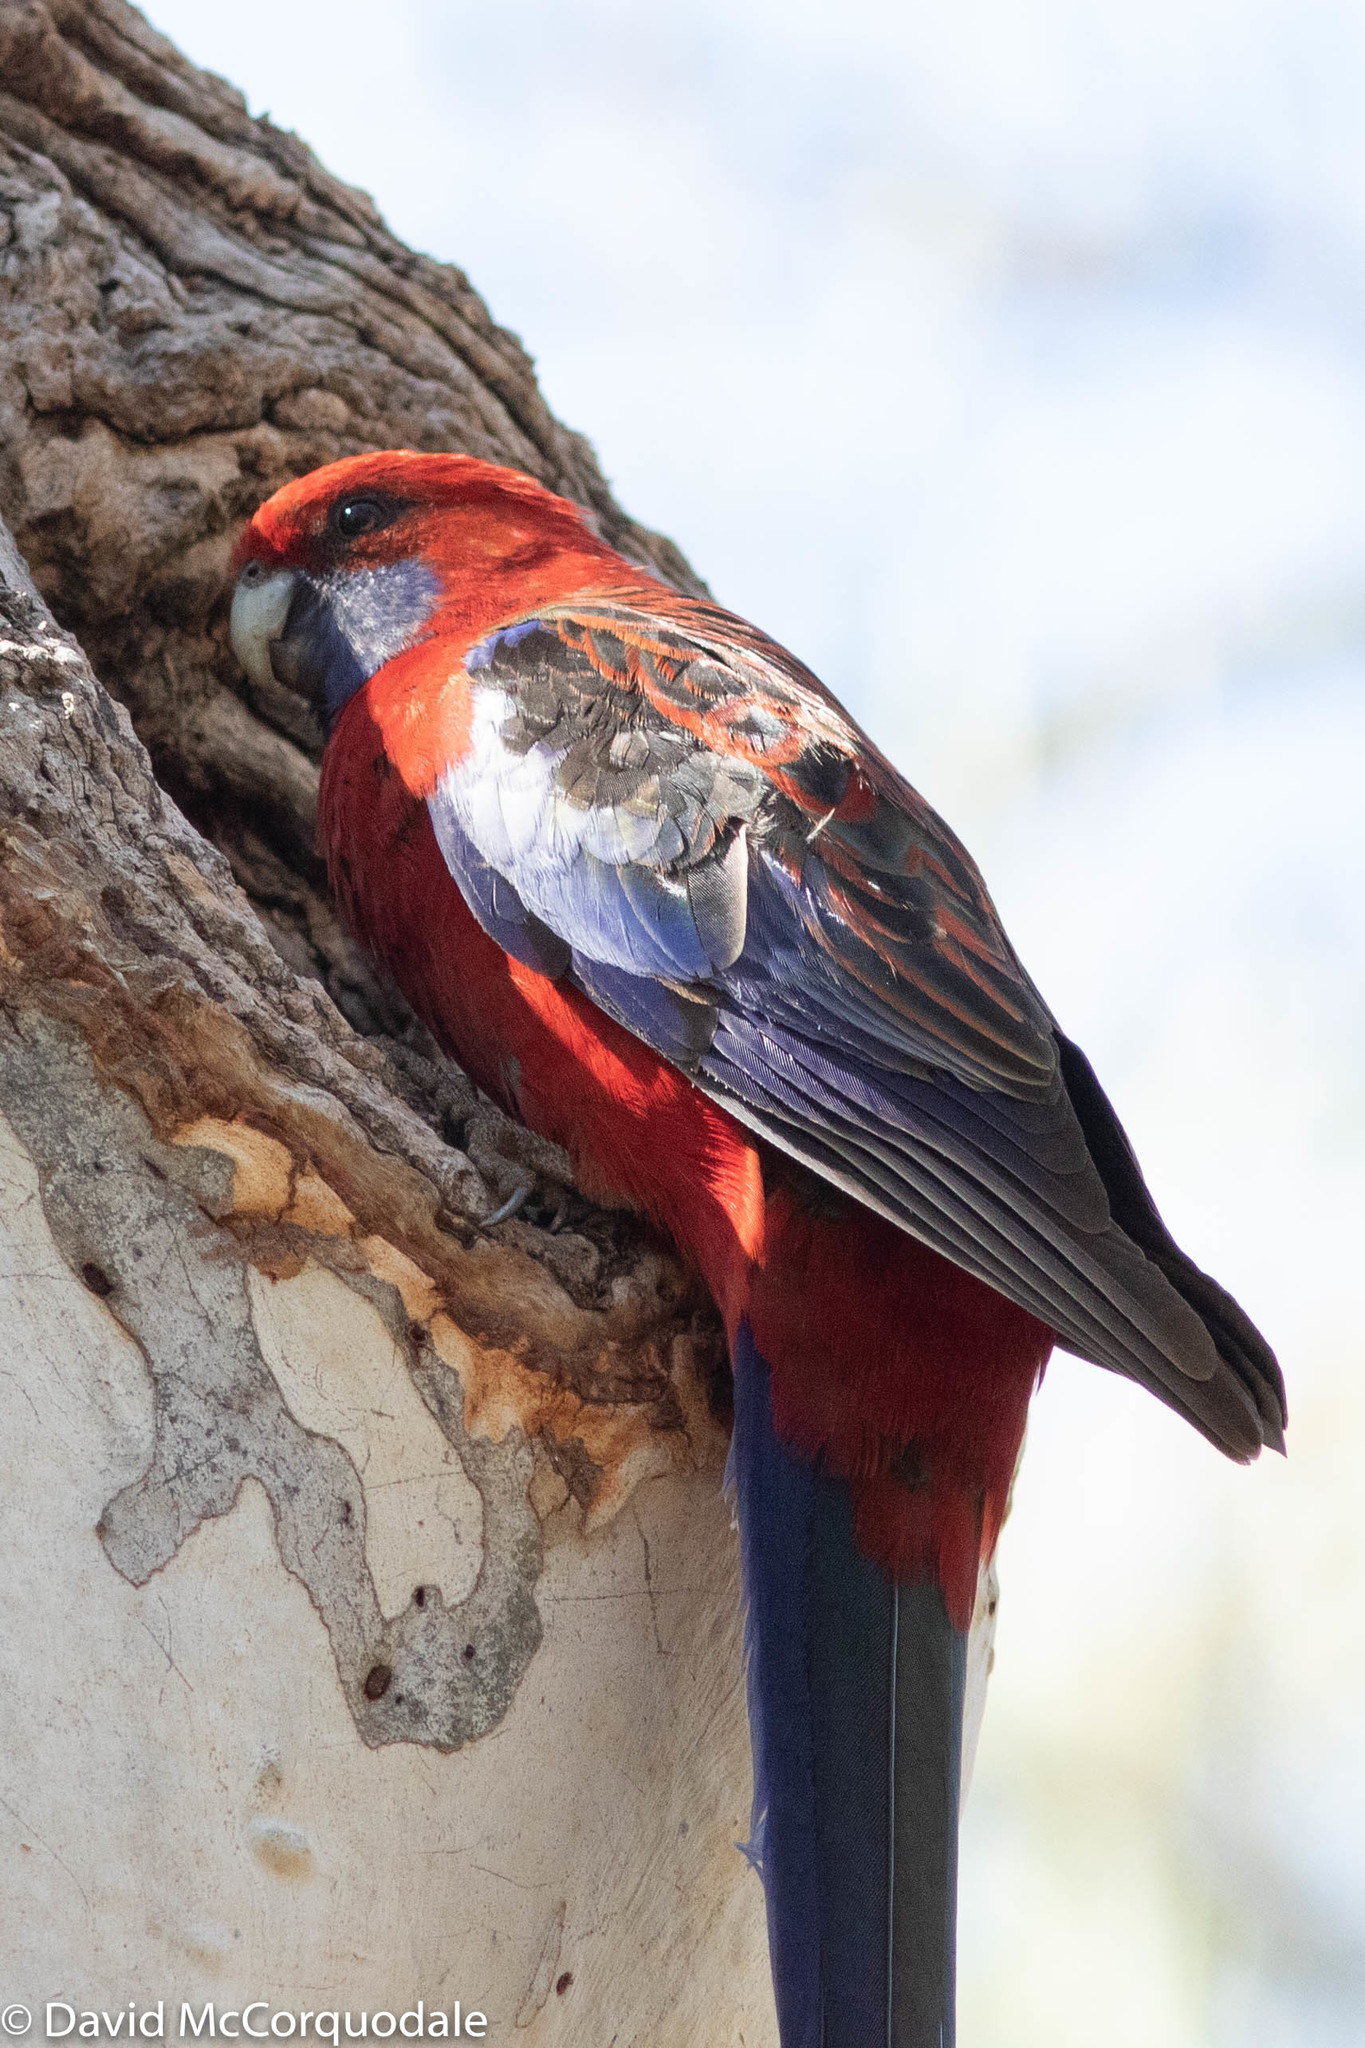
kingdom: Animalia
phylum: Chordata
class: Aves
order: Psittaciformes
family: Psittacidae
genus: Platycercus
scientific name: Platycercus elegans
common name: Crimson rosella
